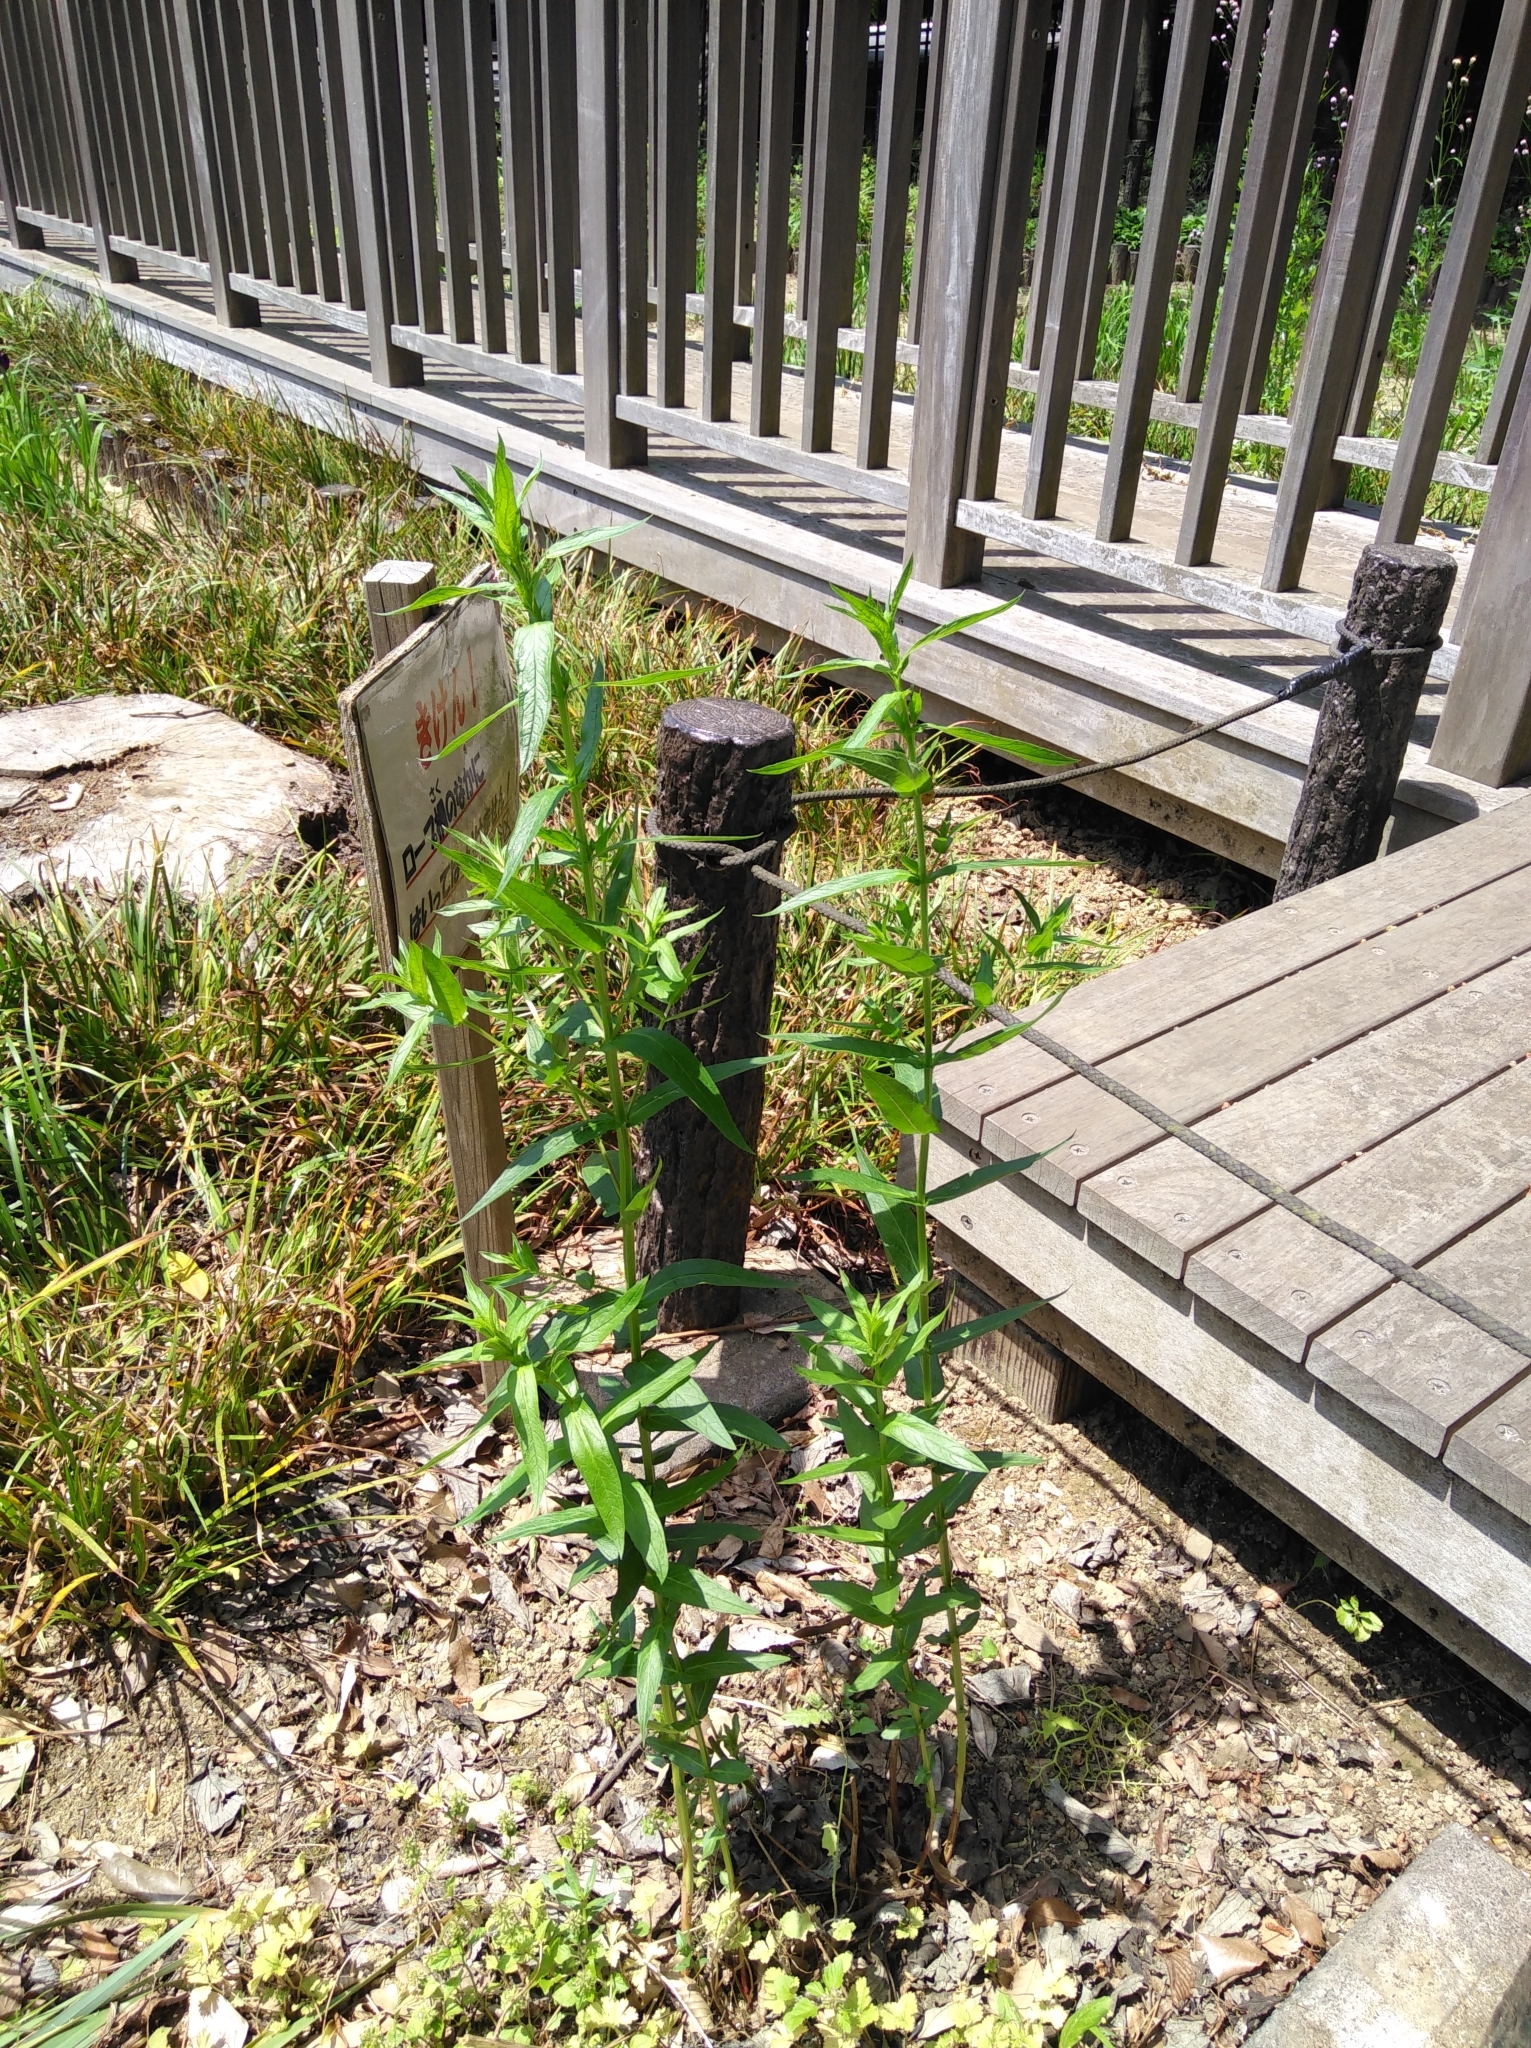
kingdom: Plantae
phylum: Tracheophyta
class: Magnoliopsida
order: Myrtales
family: Lythraceae
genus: Lythrum
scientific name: Lythrum salicaria
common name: Purple loosestrife
